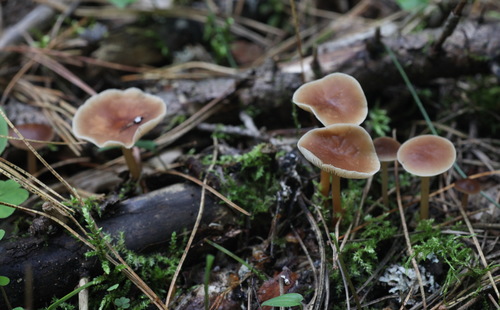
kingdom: Fungi
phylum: Basidiomycota
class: Agaricomycetes
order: Agaricales
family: Omphalotaceae
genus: Gymnopus
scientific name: Gymnopus dryophilus
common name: Penny top
